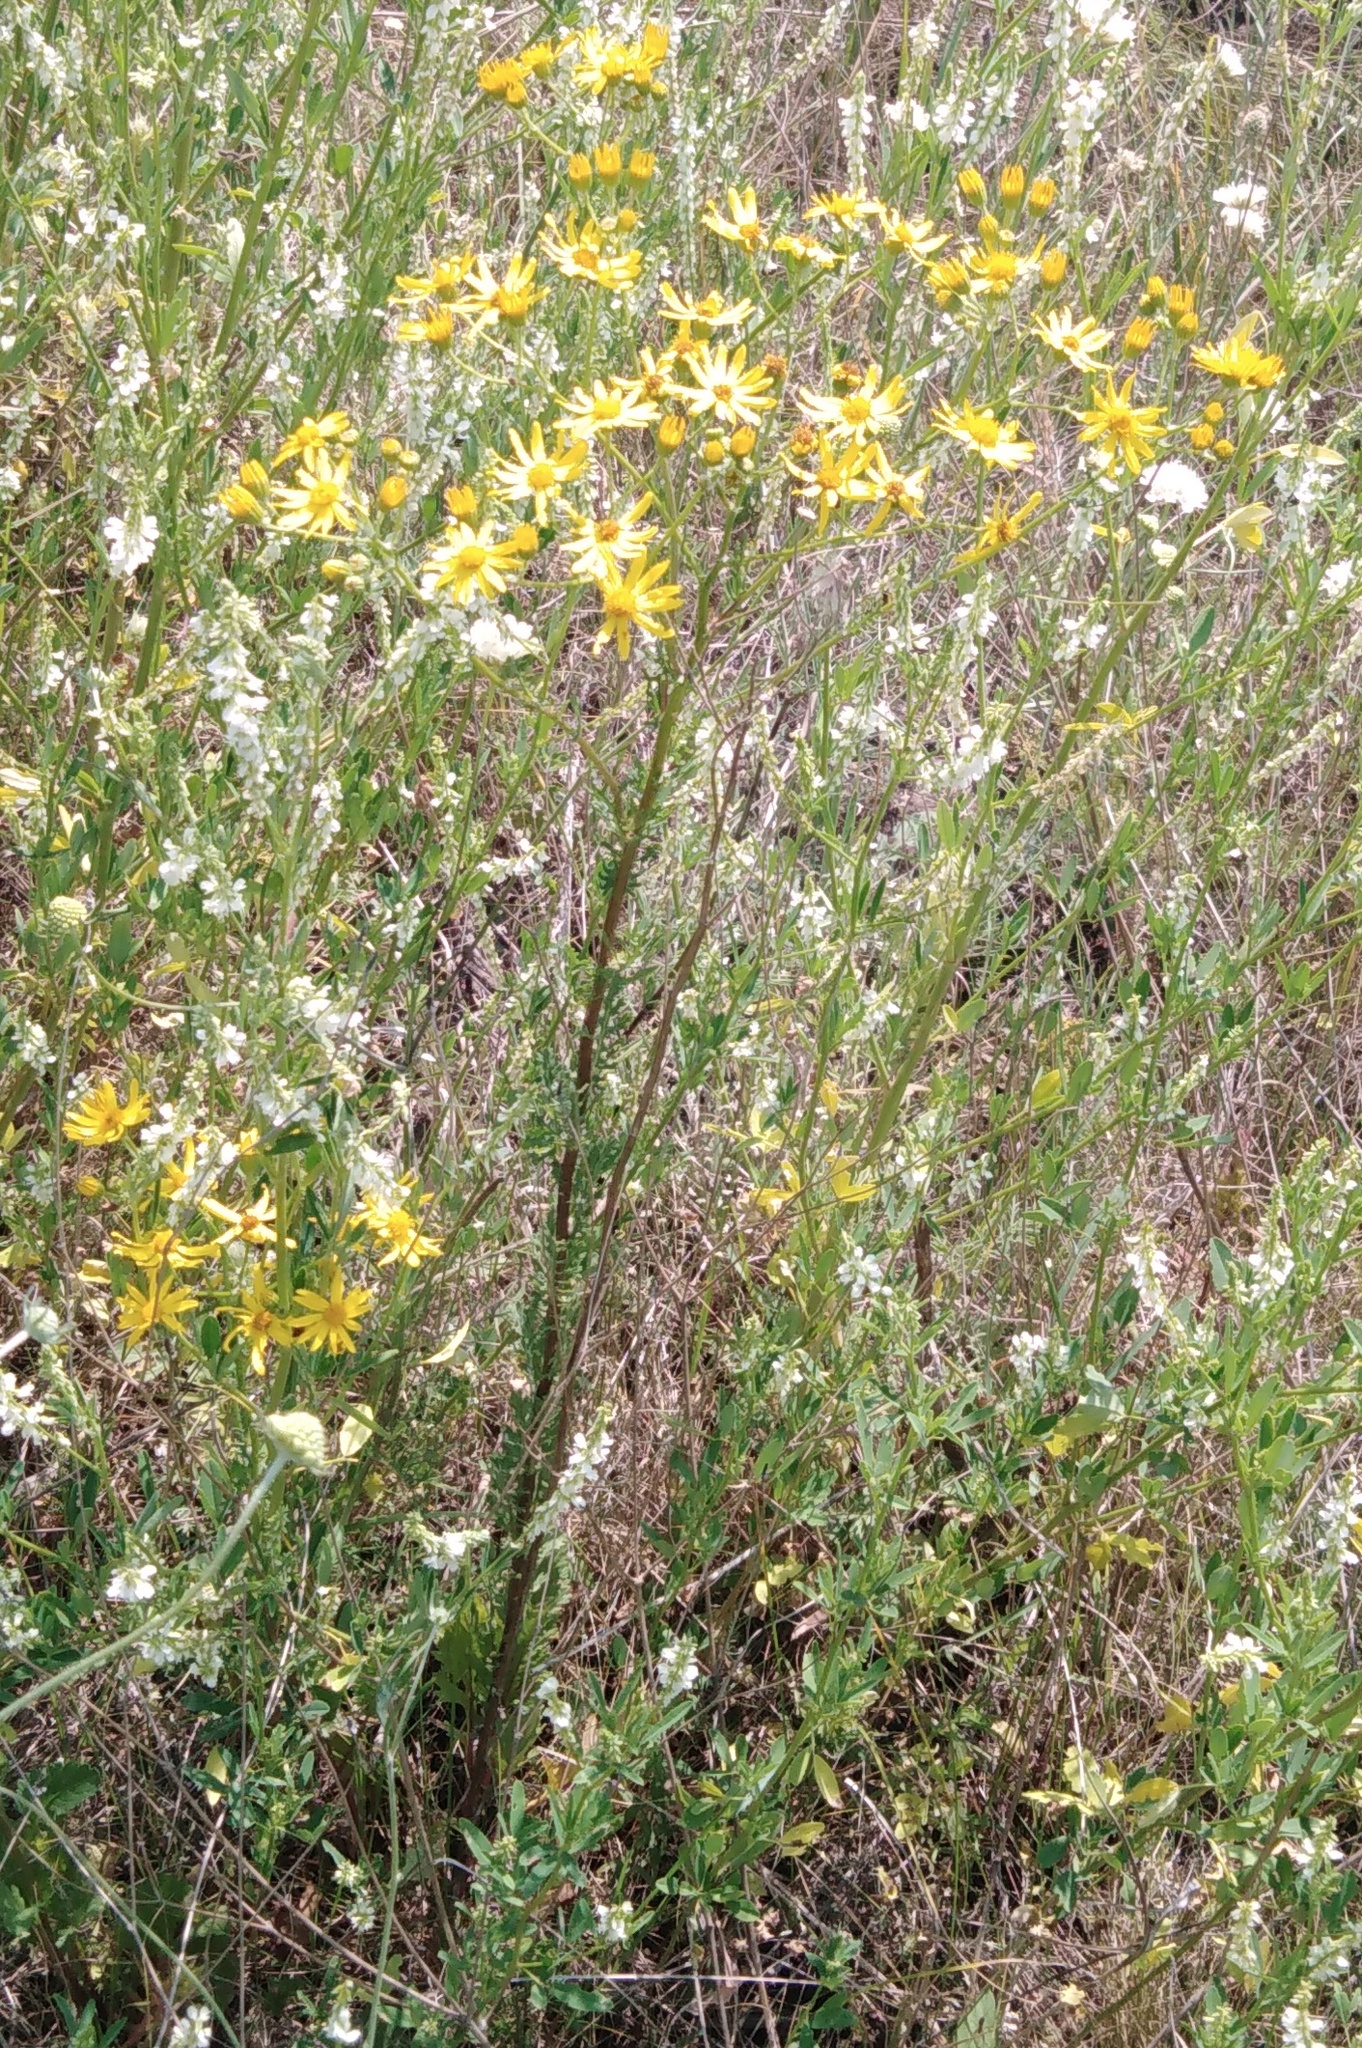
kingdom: Plantae
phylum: Tracheophyta
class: Magnoliopsida
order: Asterales
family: Asteraceae
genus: Jacobaea
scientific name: Jacobaea vulgaris
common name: Stinking willie
